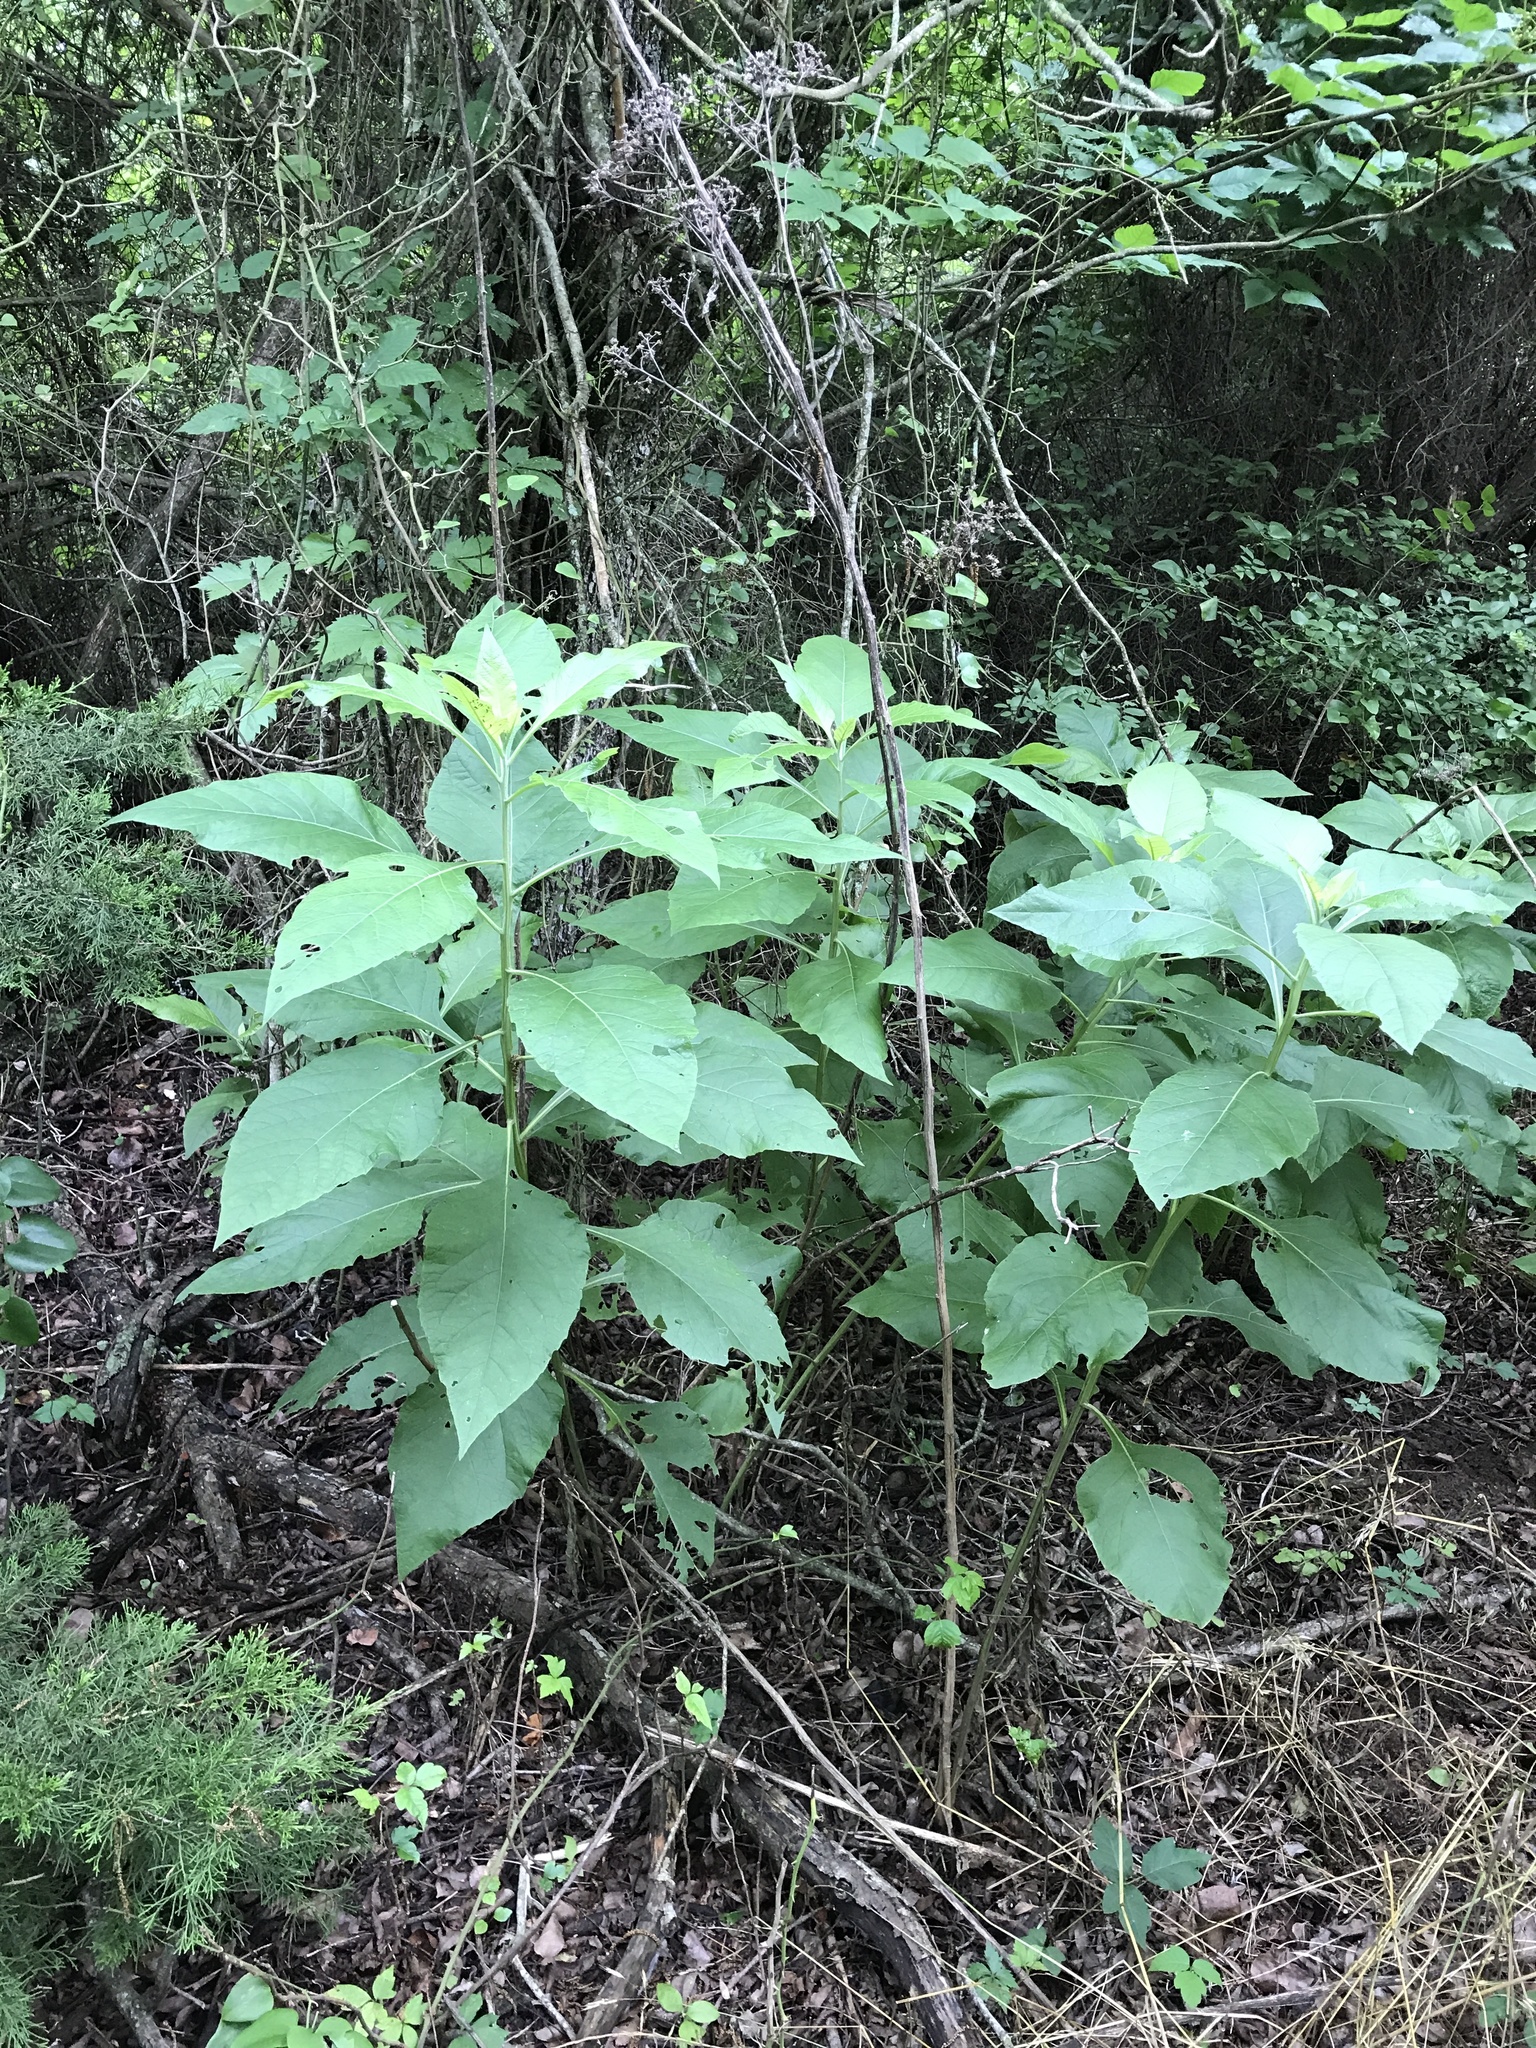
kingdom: Plantae
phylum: Tracheophyta
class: Magnoliopsida
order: Asterales
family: Asteraceae
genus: Verbesina
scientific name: Verbesina virginica
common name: Frostweed
